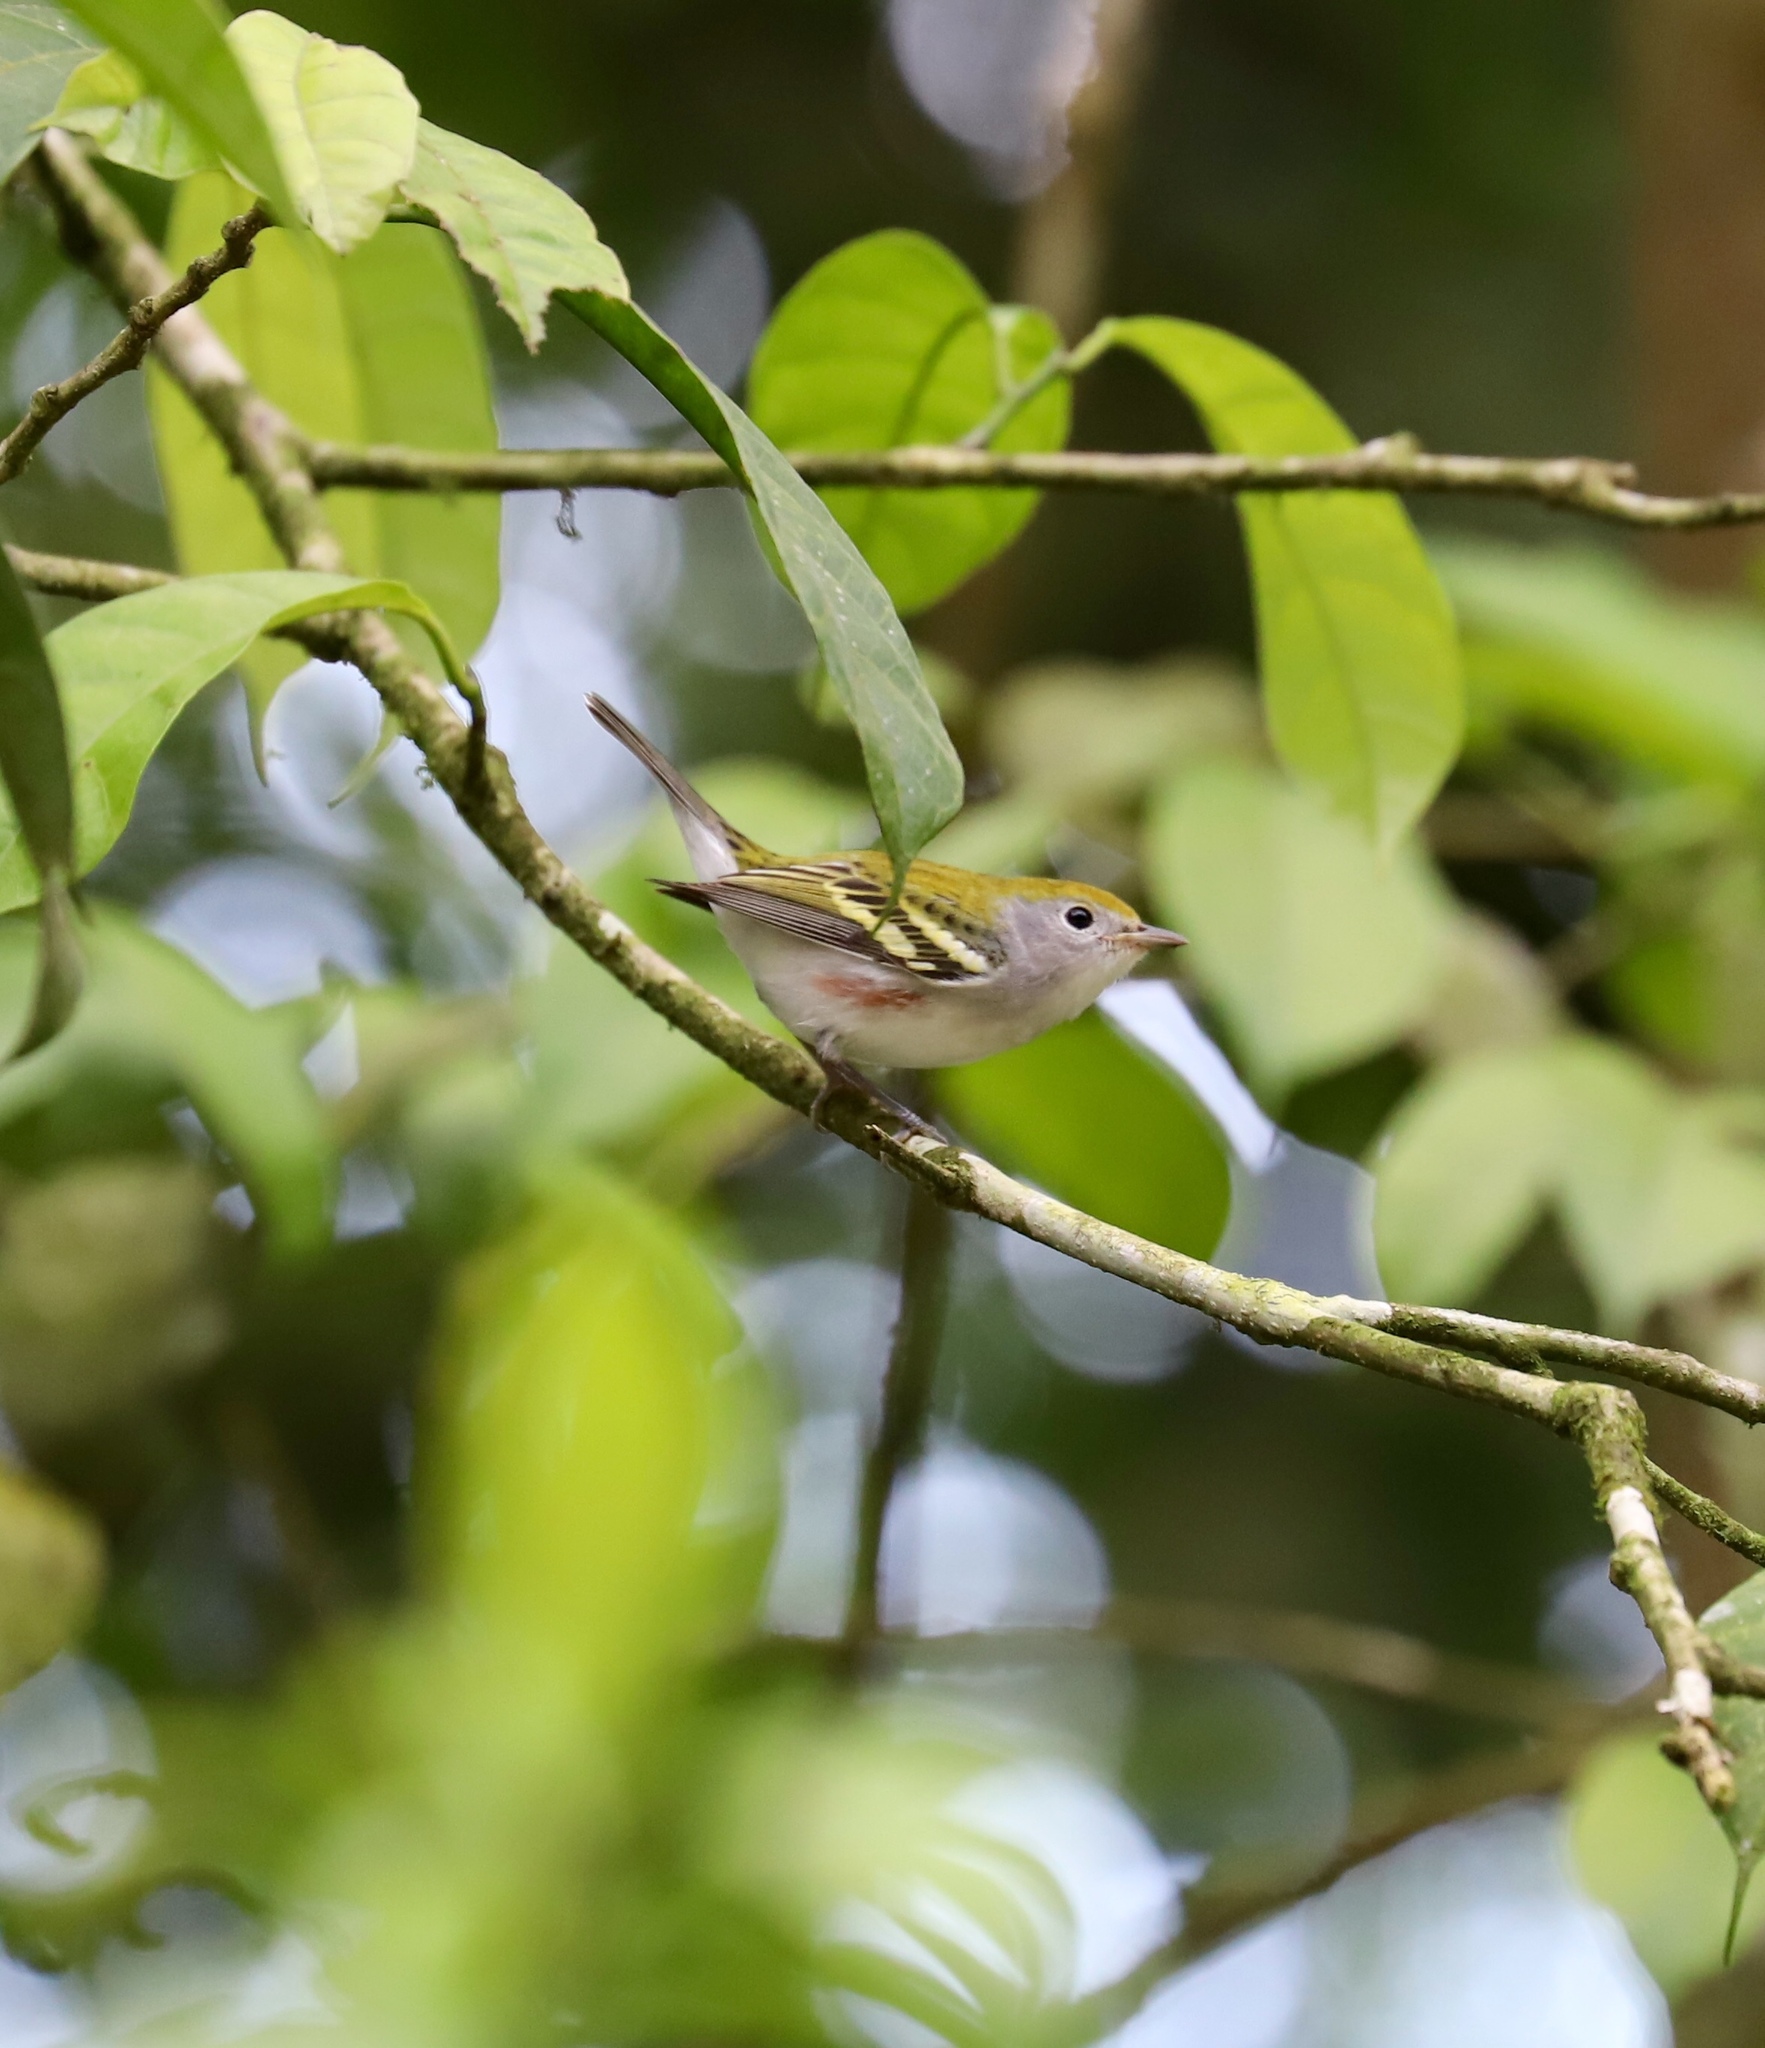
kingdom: Animalia
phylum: Chordata
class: Aves
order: Passeriformes
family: Parulidae
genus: Setophaga
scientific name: Setophaga pensylvanica
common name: Chestnut-sided warbler
